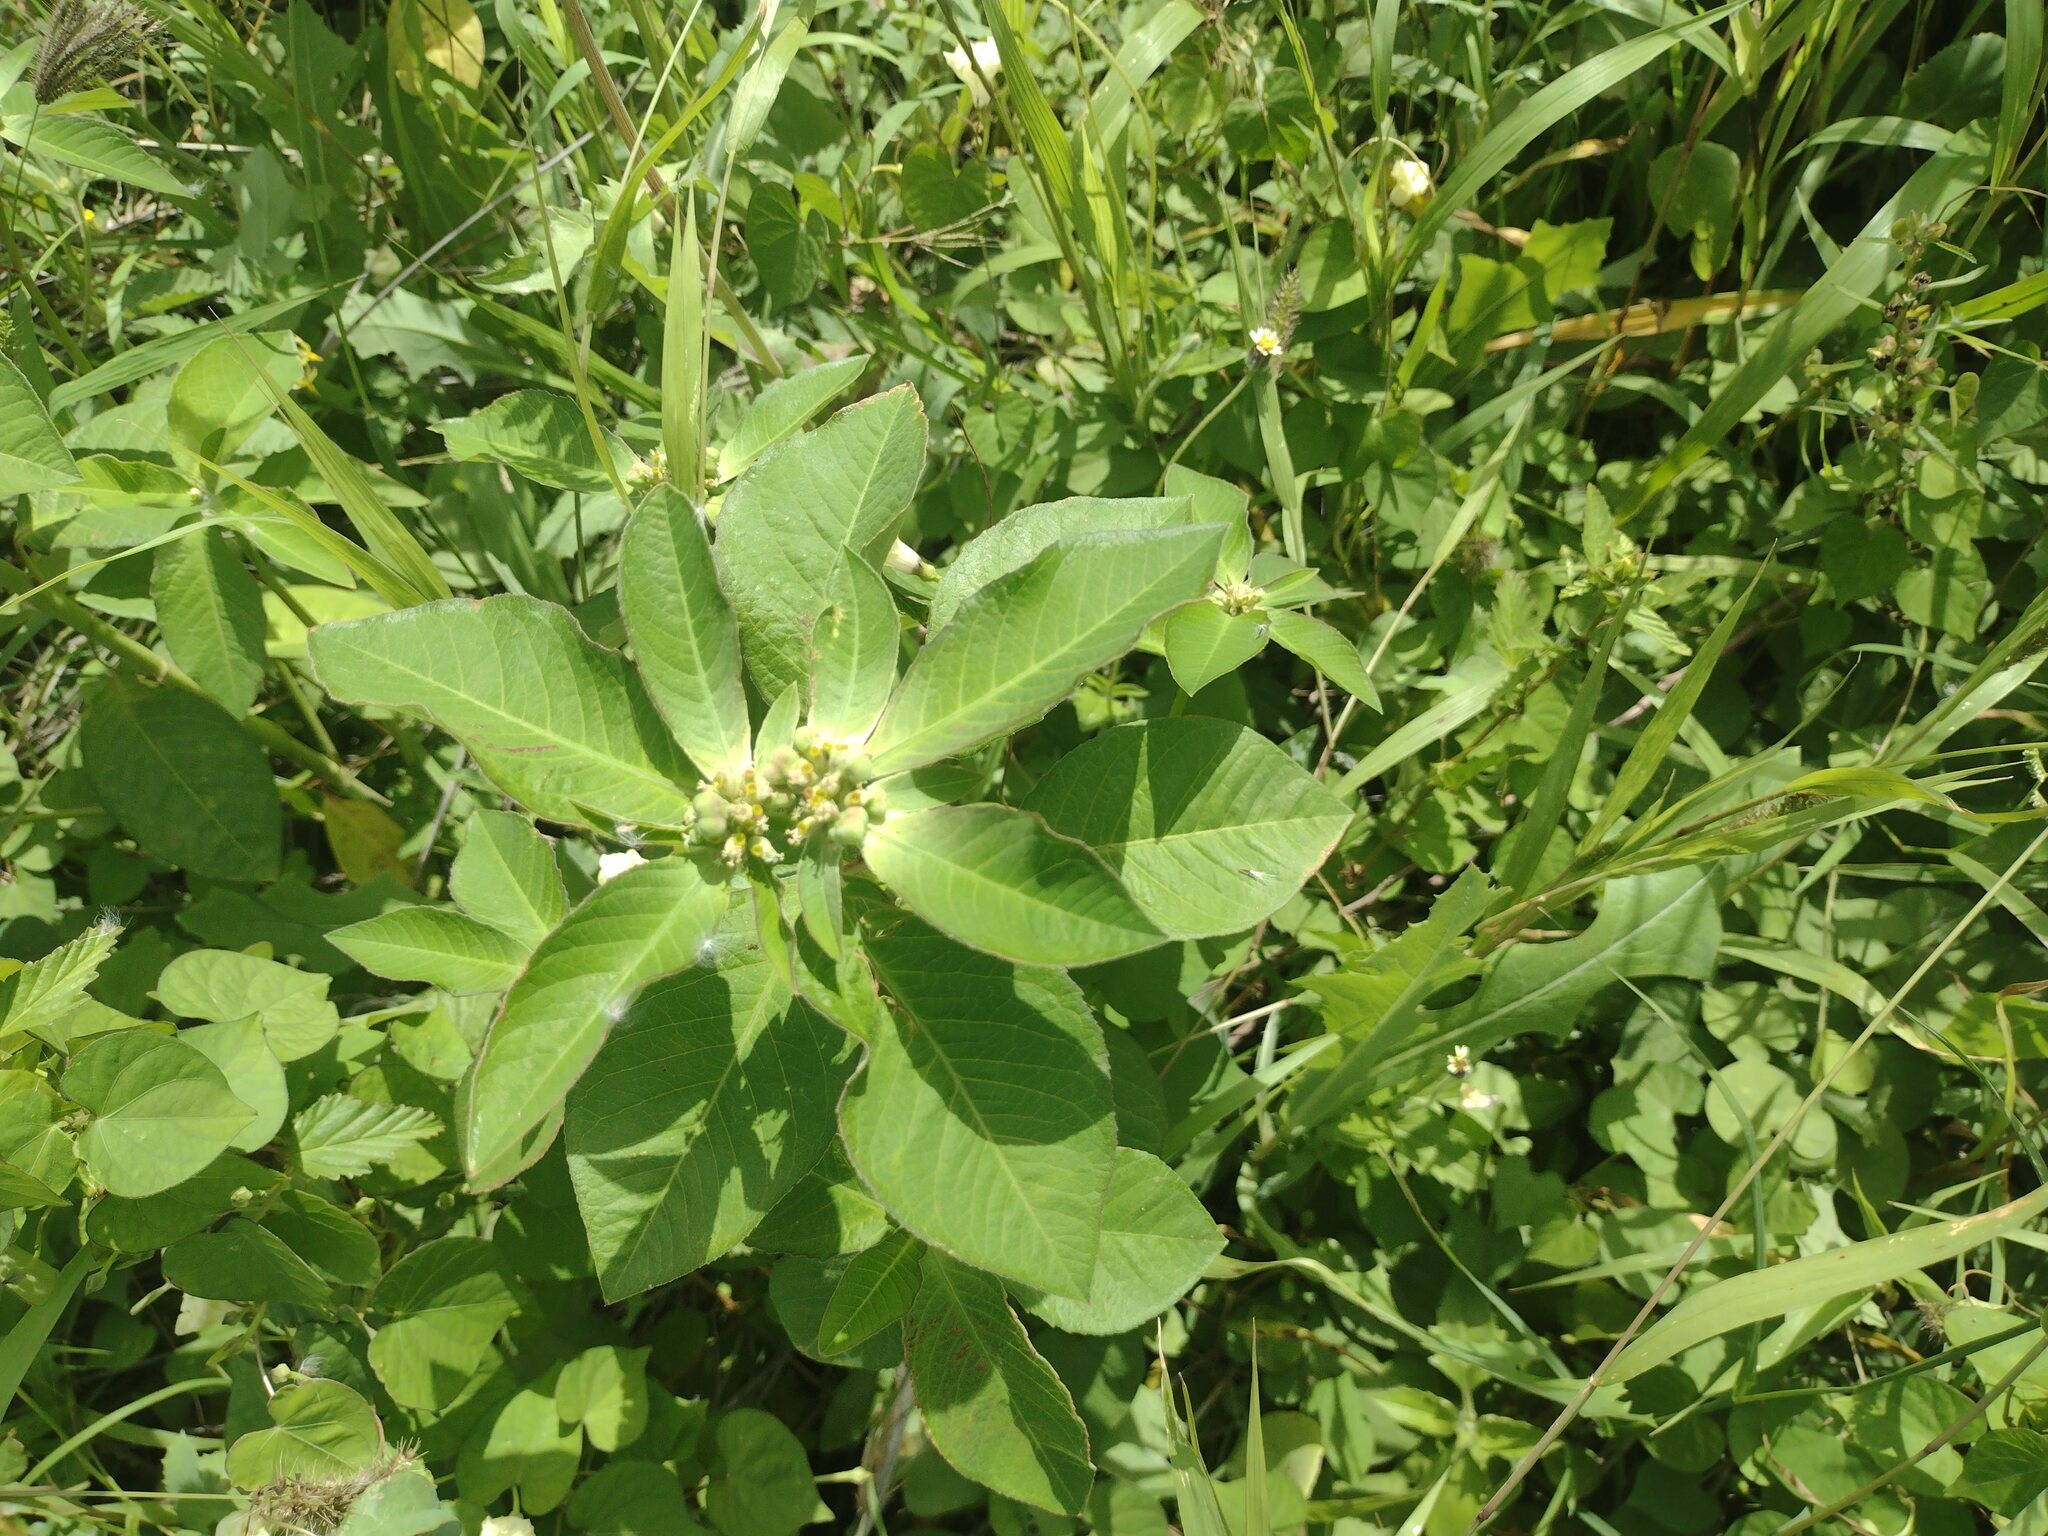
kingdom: Plantae
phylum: Tracheophyta
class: Magnoliopsida
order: Malpighiales
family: Euphorbiaceae
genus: Euphorbia
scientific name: Euphorbia heterophylla
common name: Mexican fireplant
